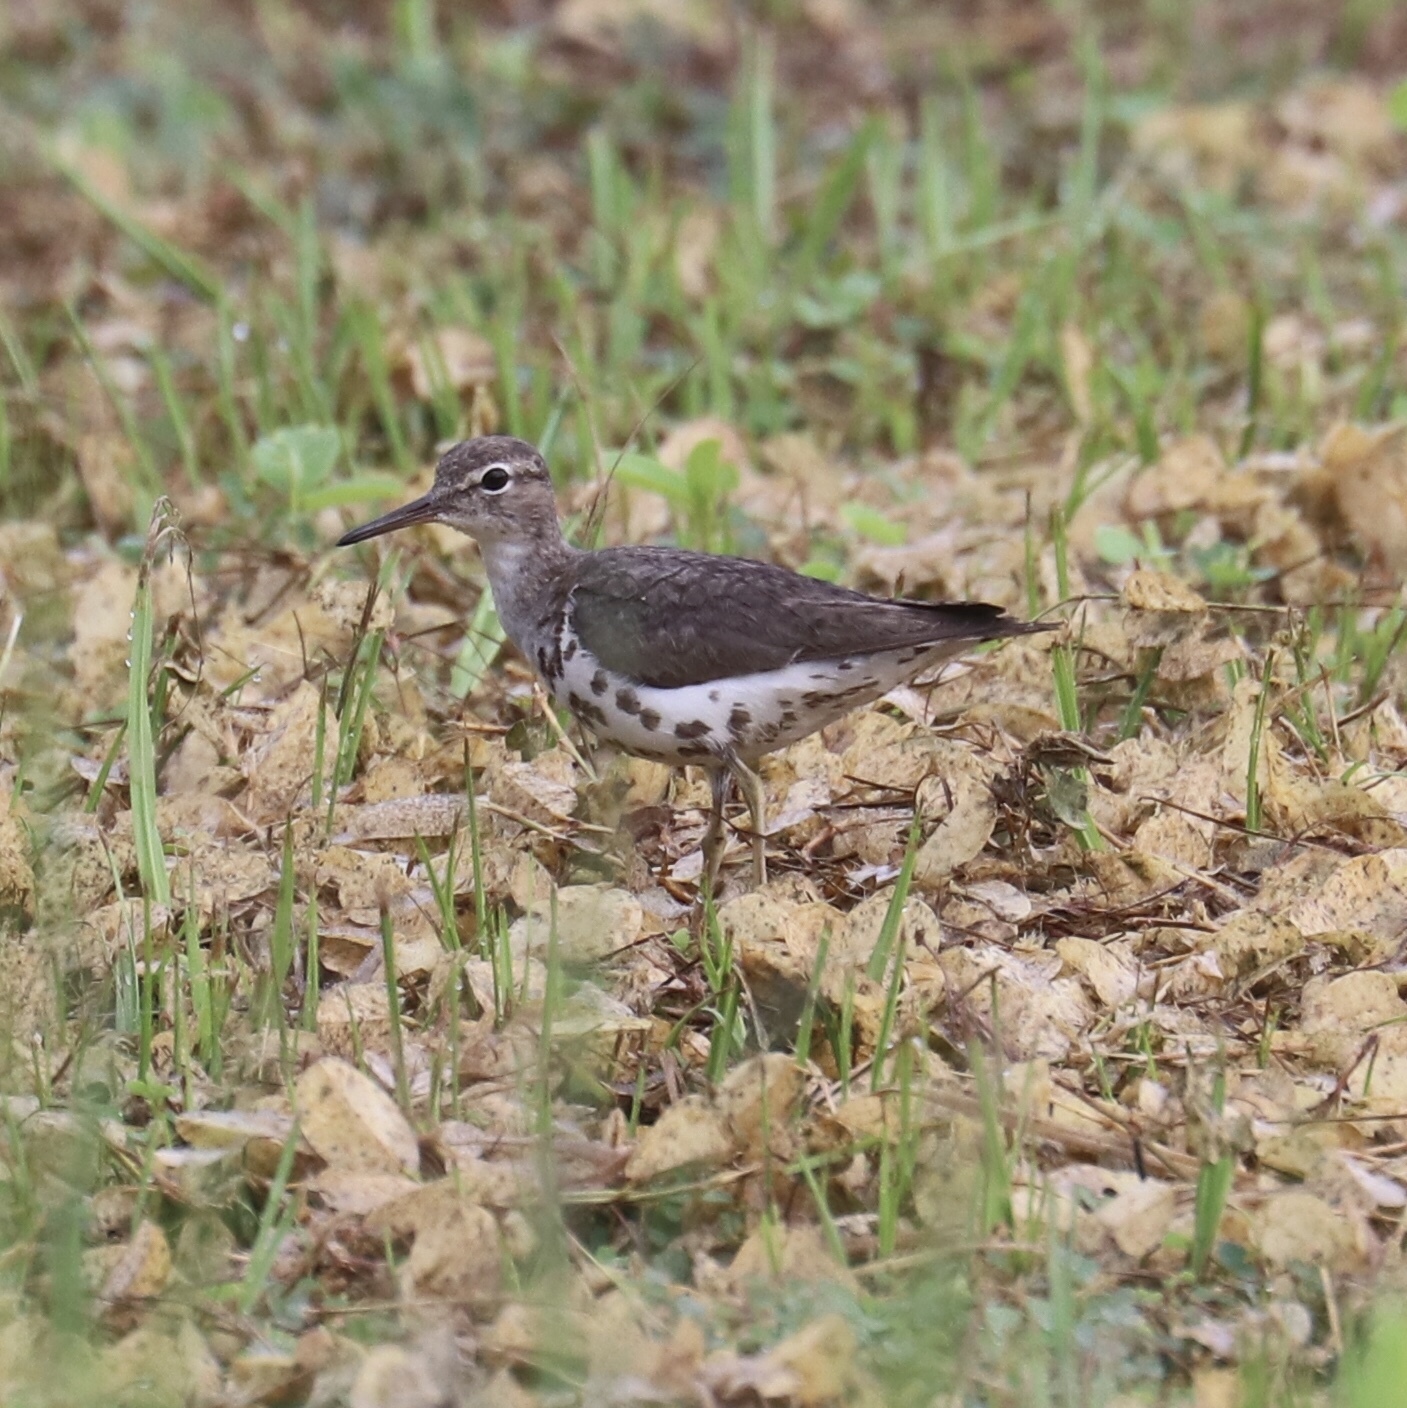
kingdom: Animalia
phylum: Chordata
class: Aves
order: Charadriiformes
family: Scolopacidae
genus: Actitis
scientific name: Actitis macularius
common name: Spotted sandpiper
